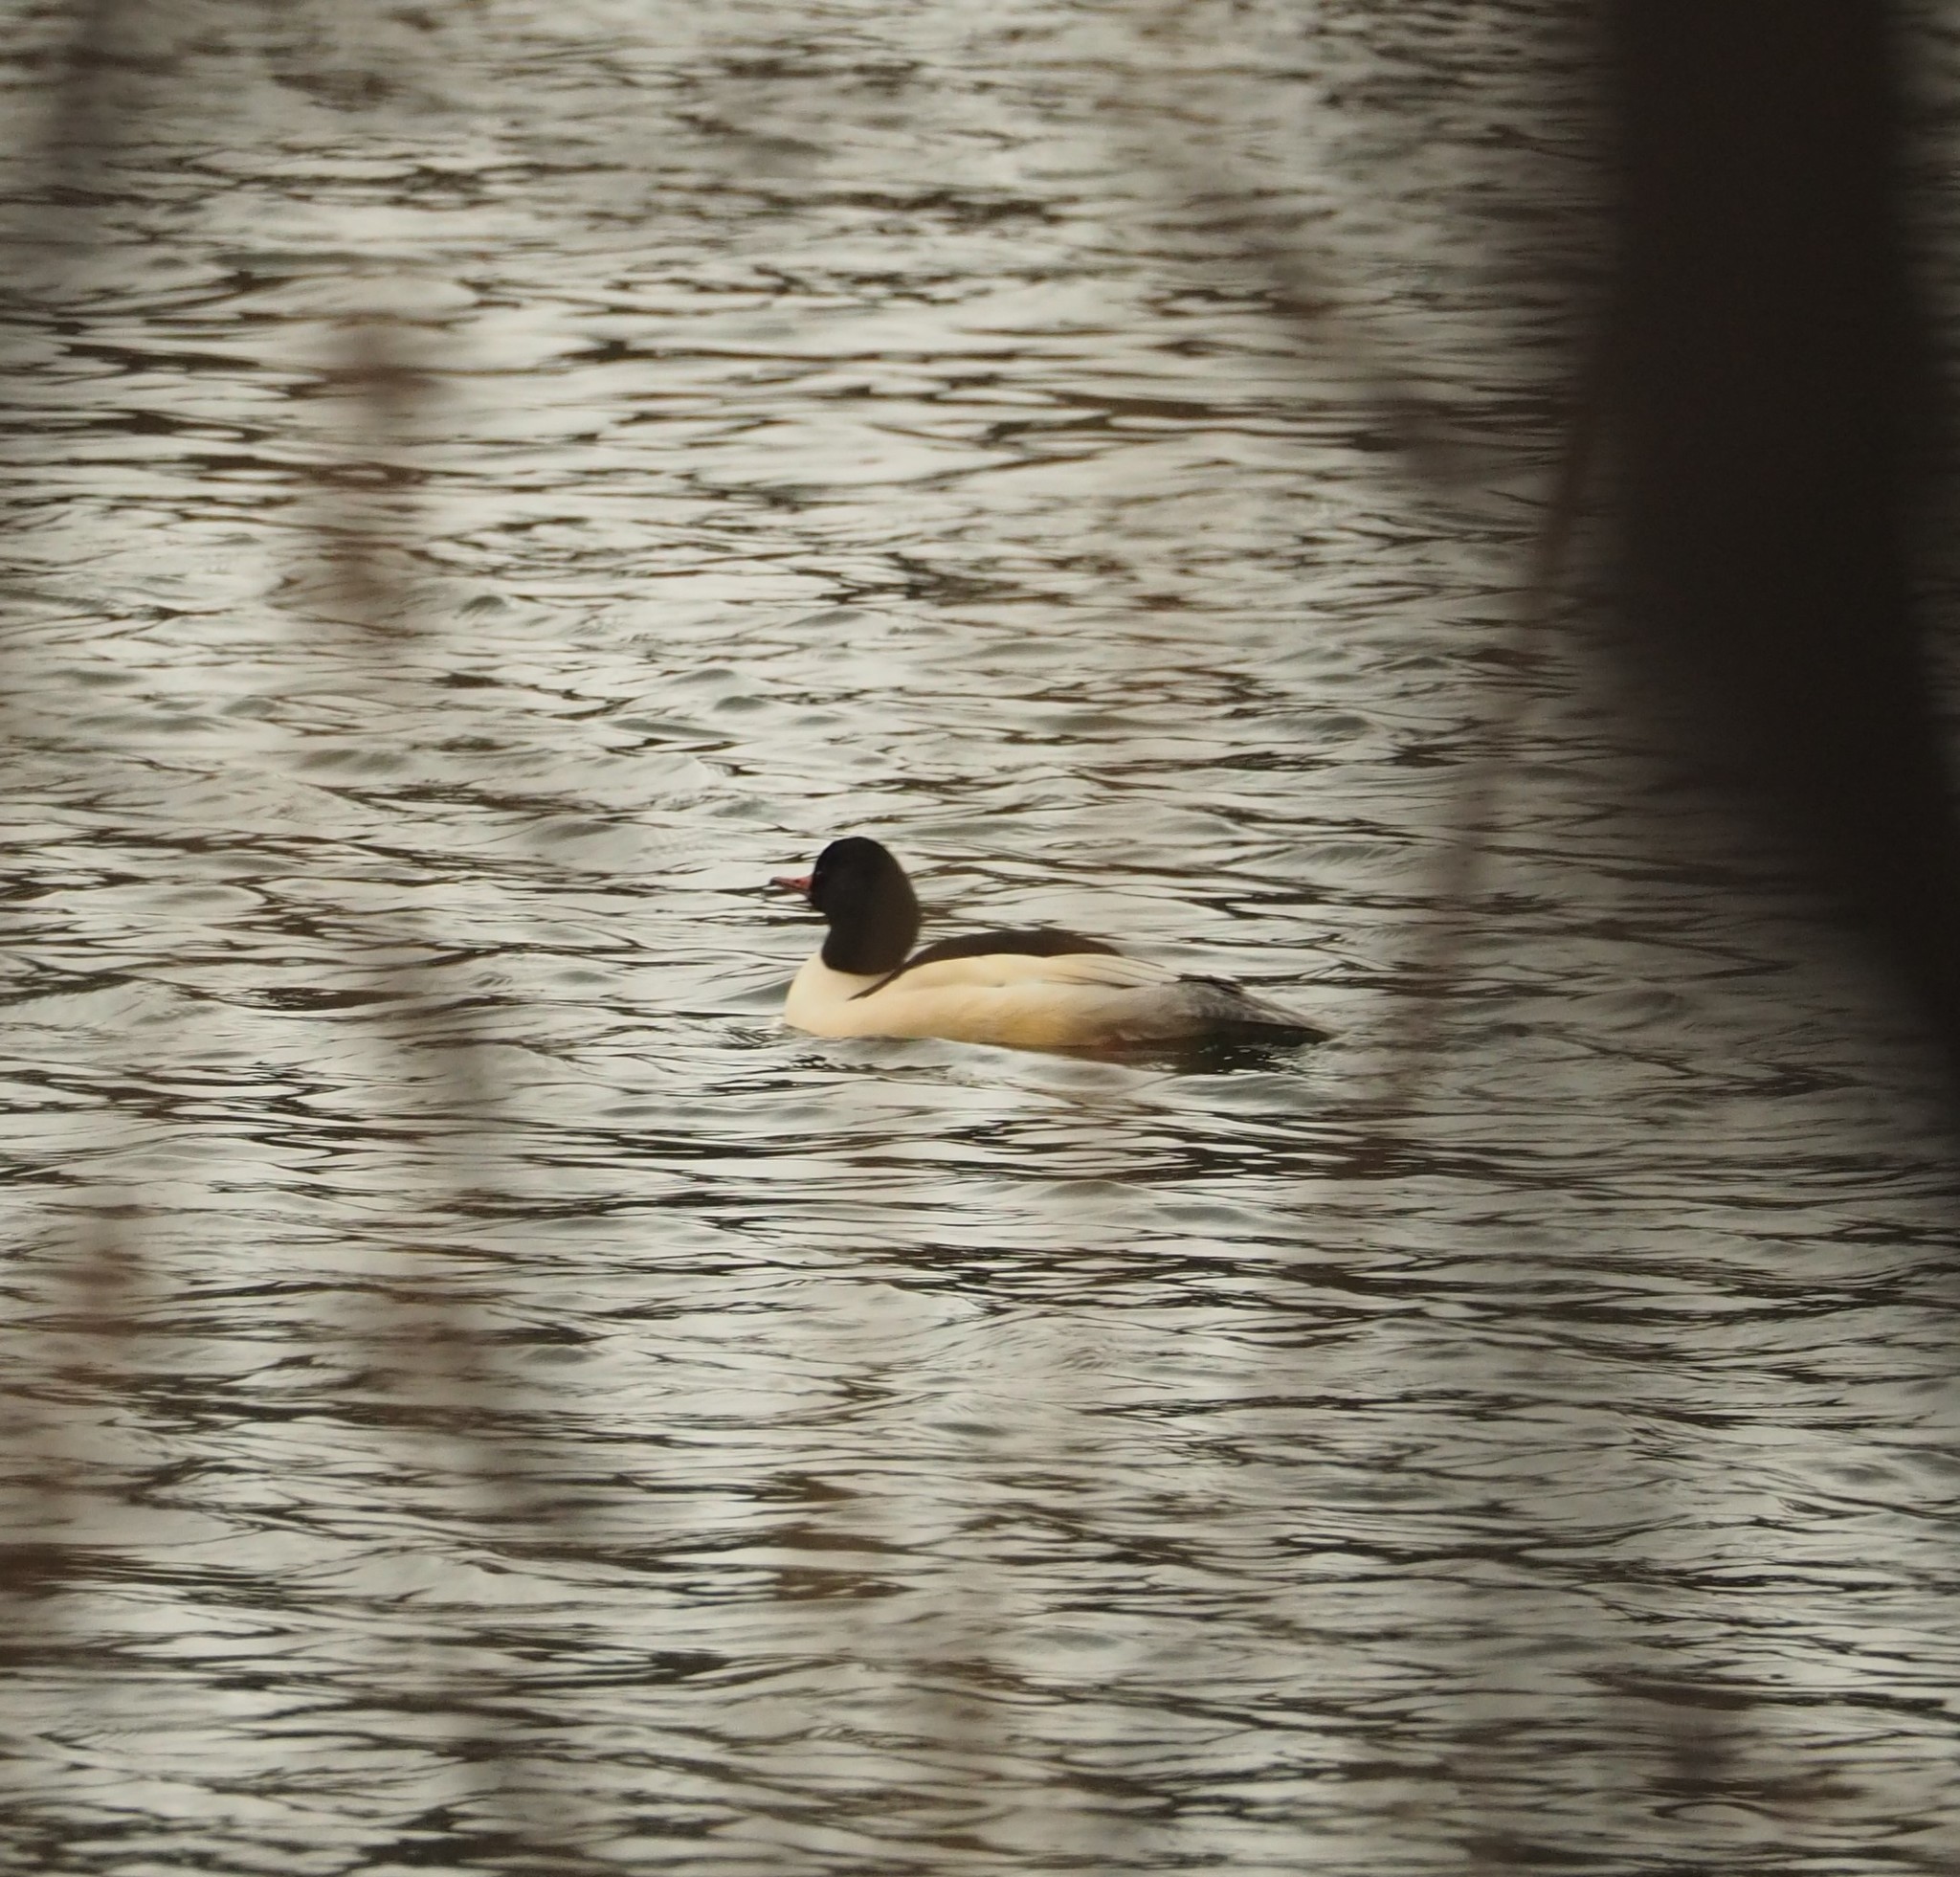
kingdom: Animalia
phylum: Chordata
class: Aves
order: Anseriformes
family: Anatidae
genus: Mergus
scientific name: Mergus merganser
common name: Common merganser
